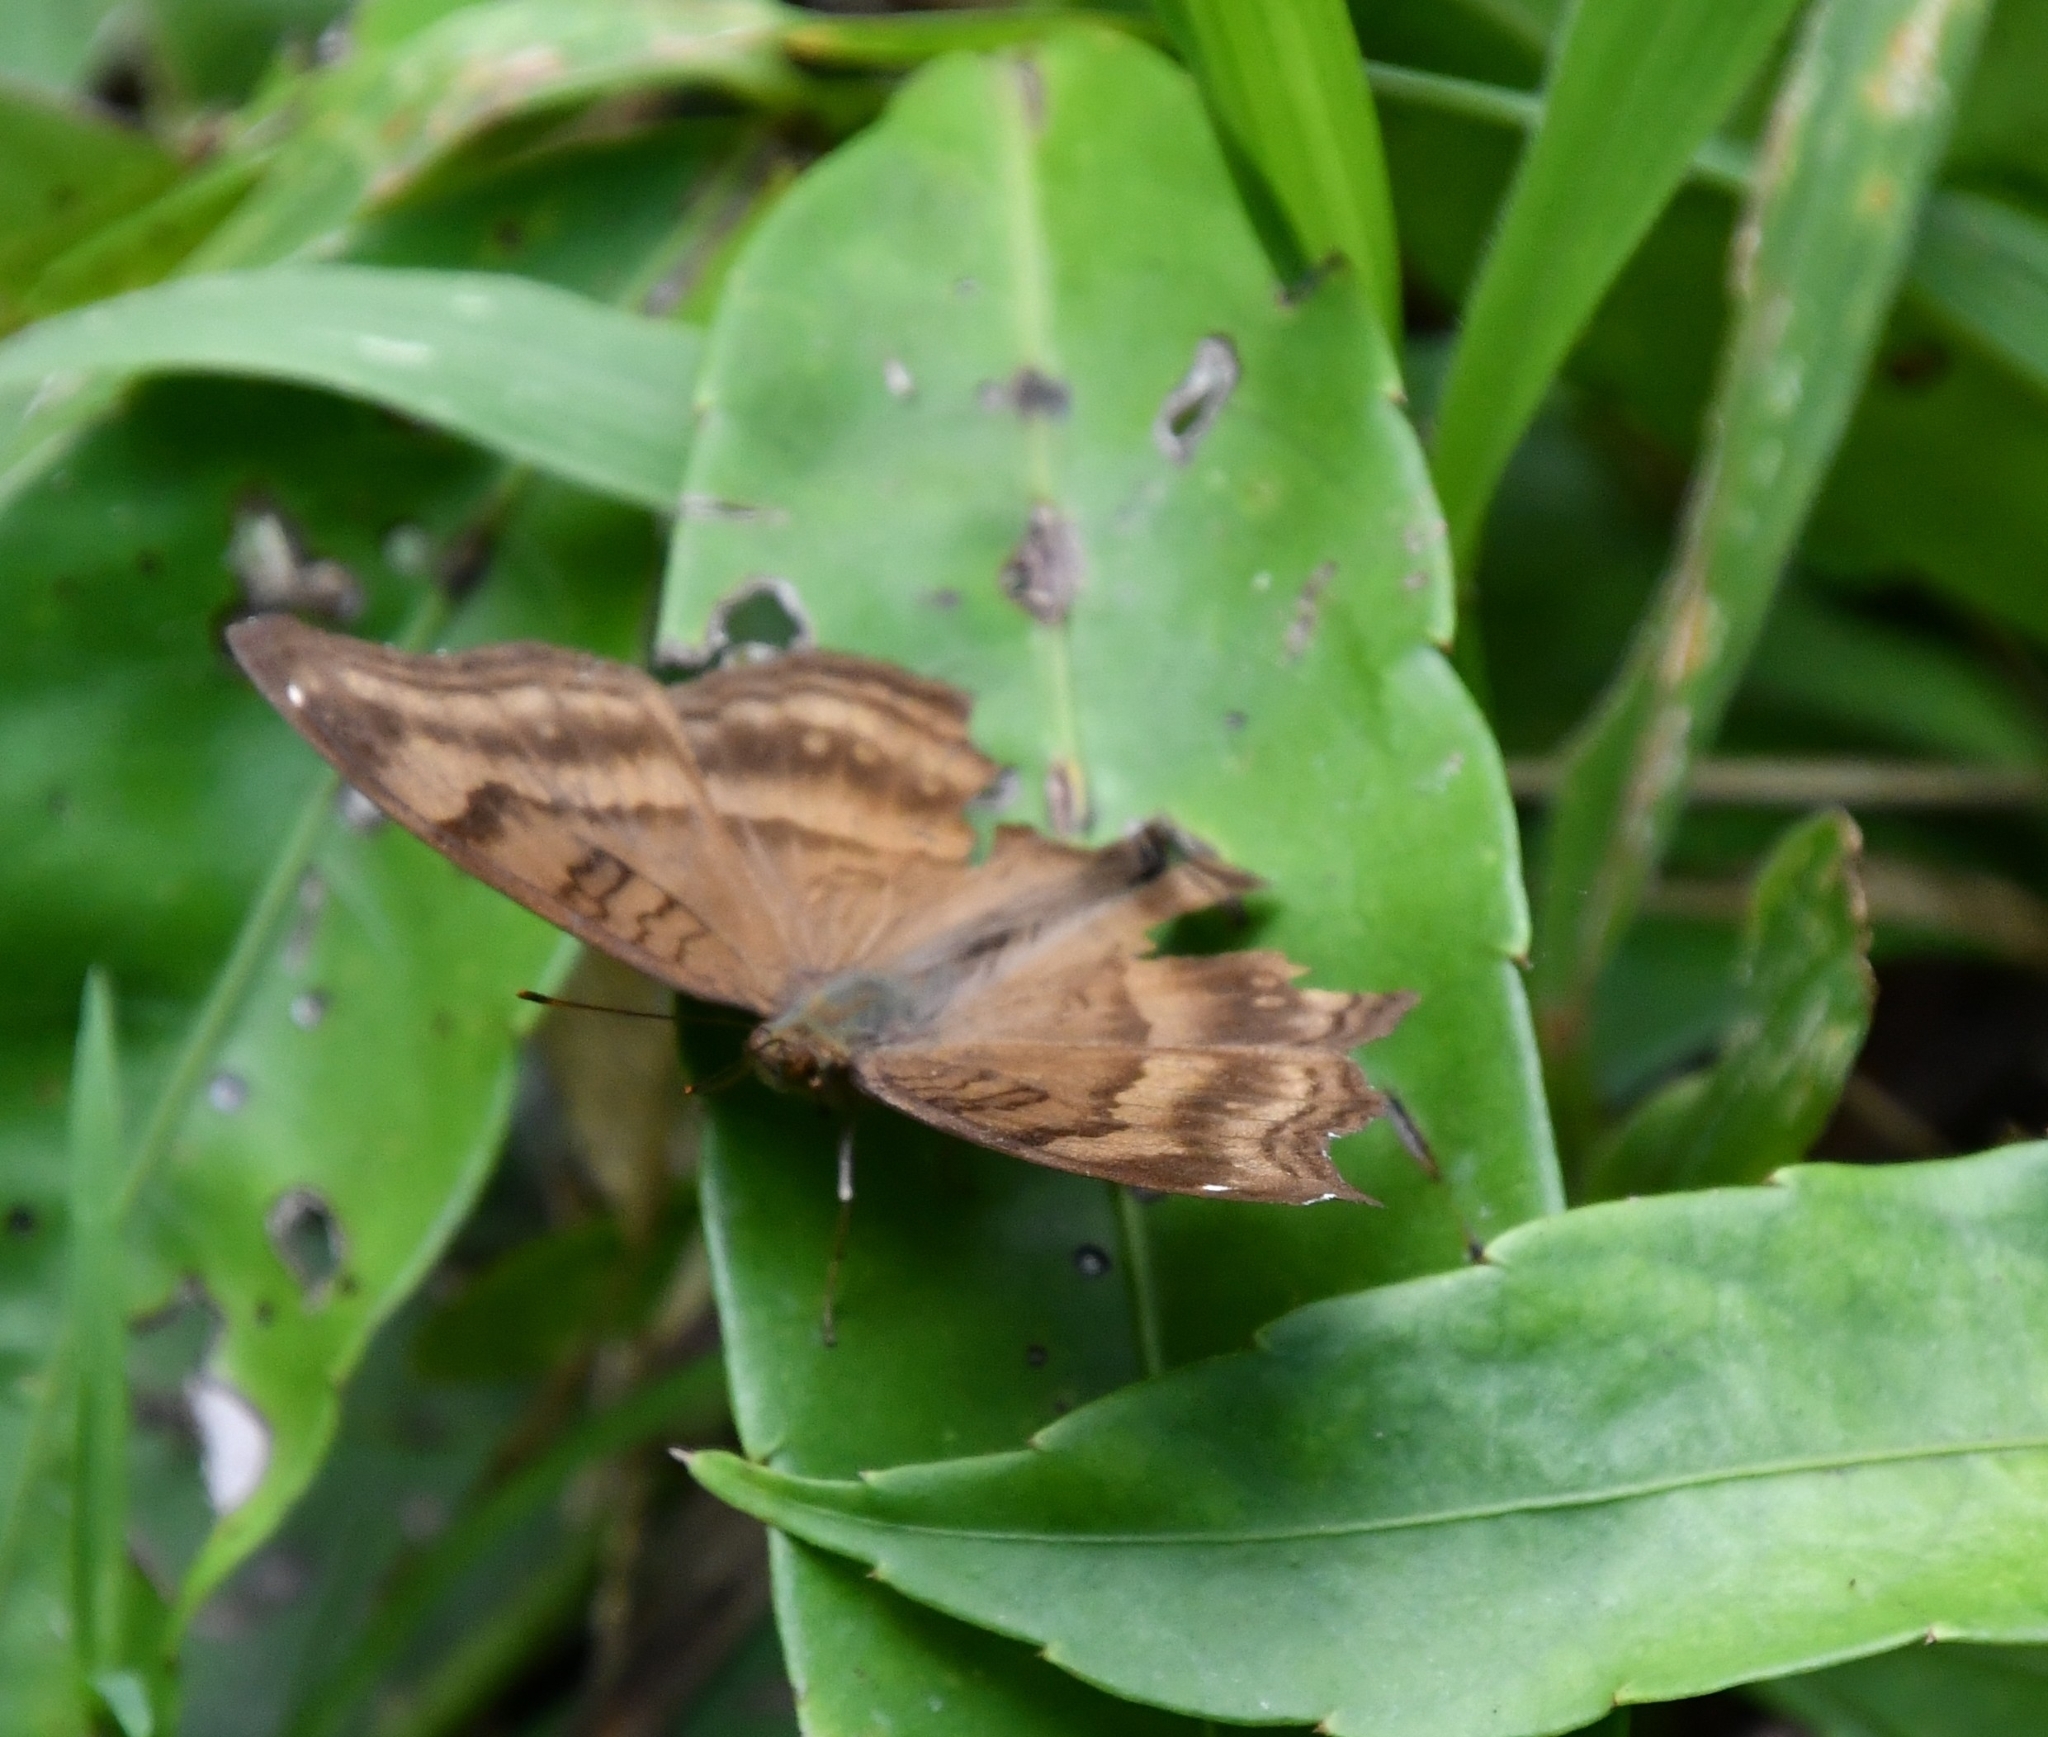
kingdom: Animalia
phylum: Arthropoda
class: Insecta
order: Lepidoptera
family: Nymphalidae
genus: Junonia
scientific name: Junonia iphita
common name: Chocolate pansy
